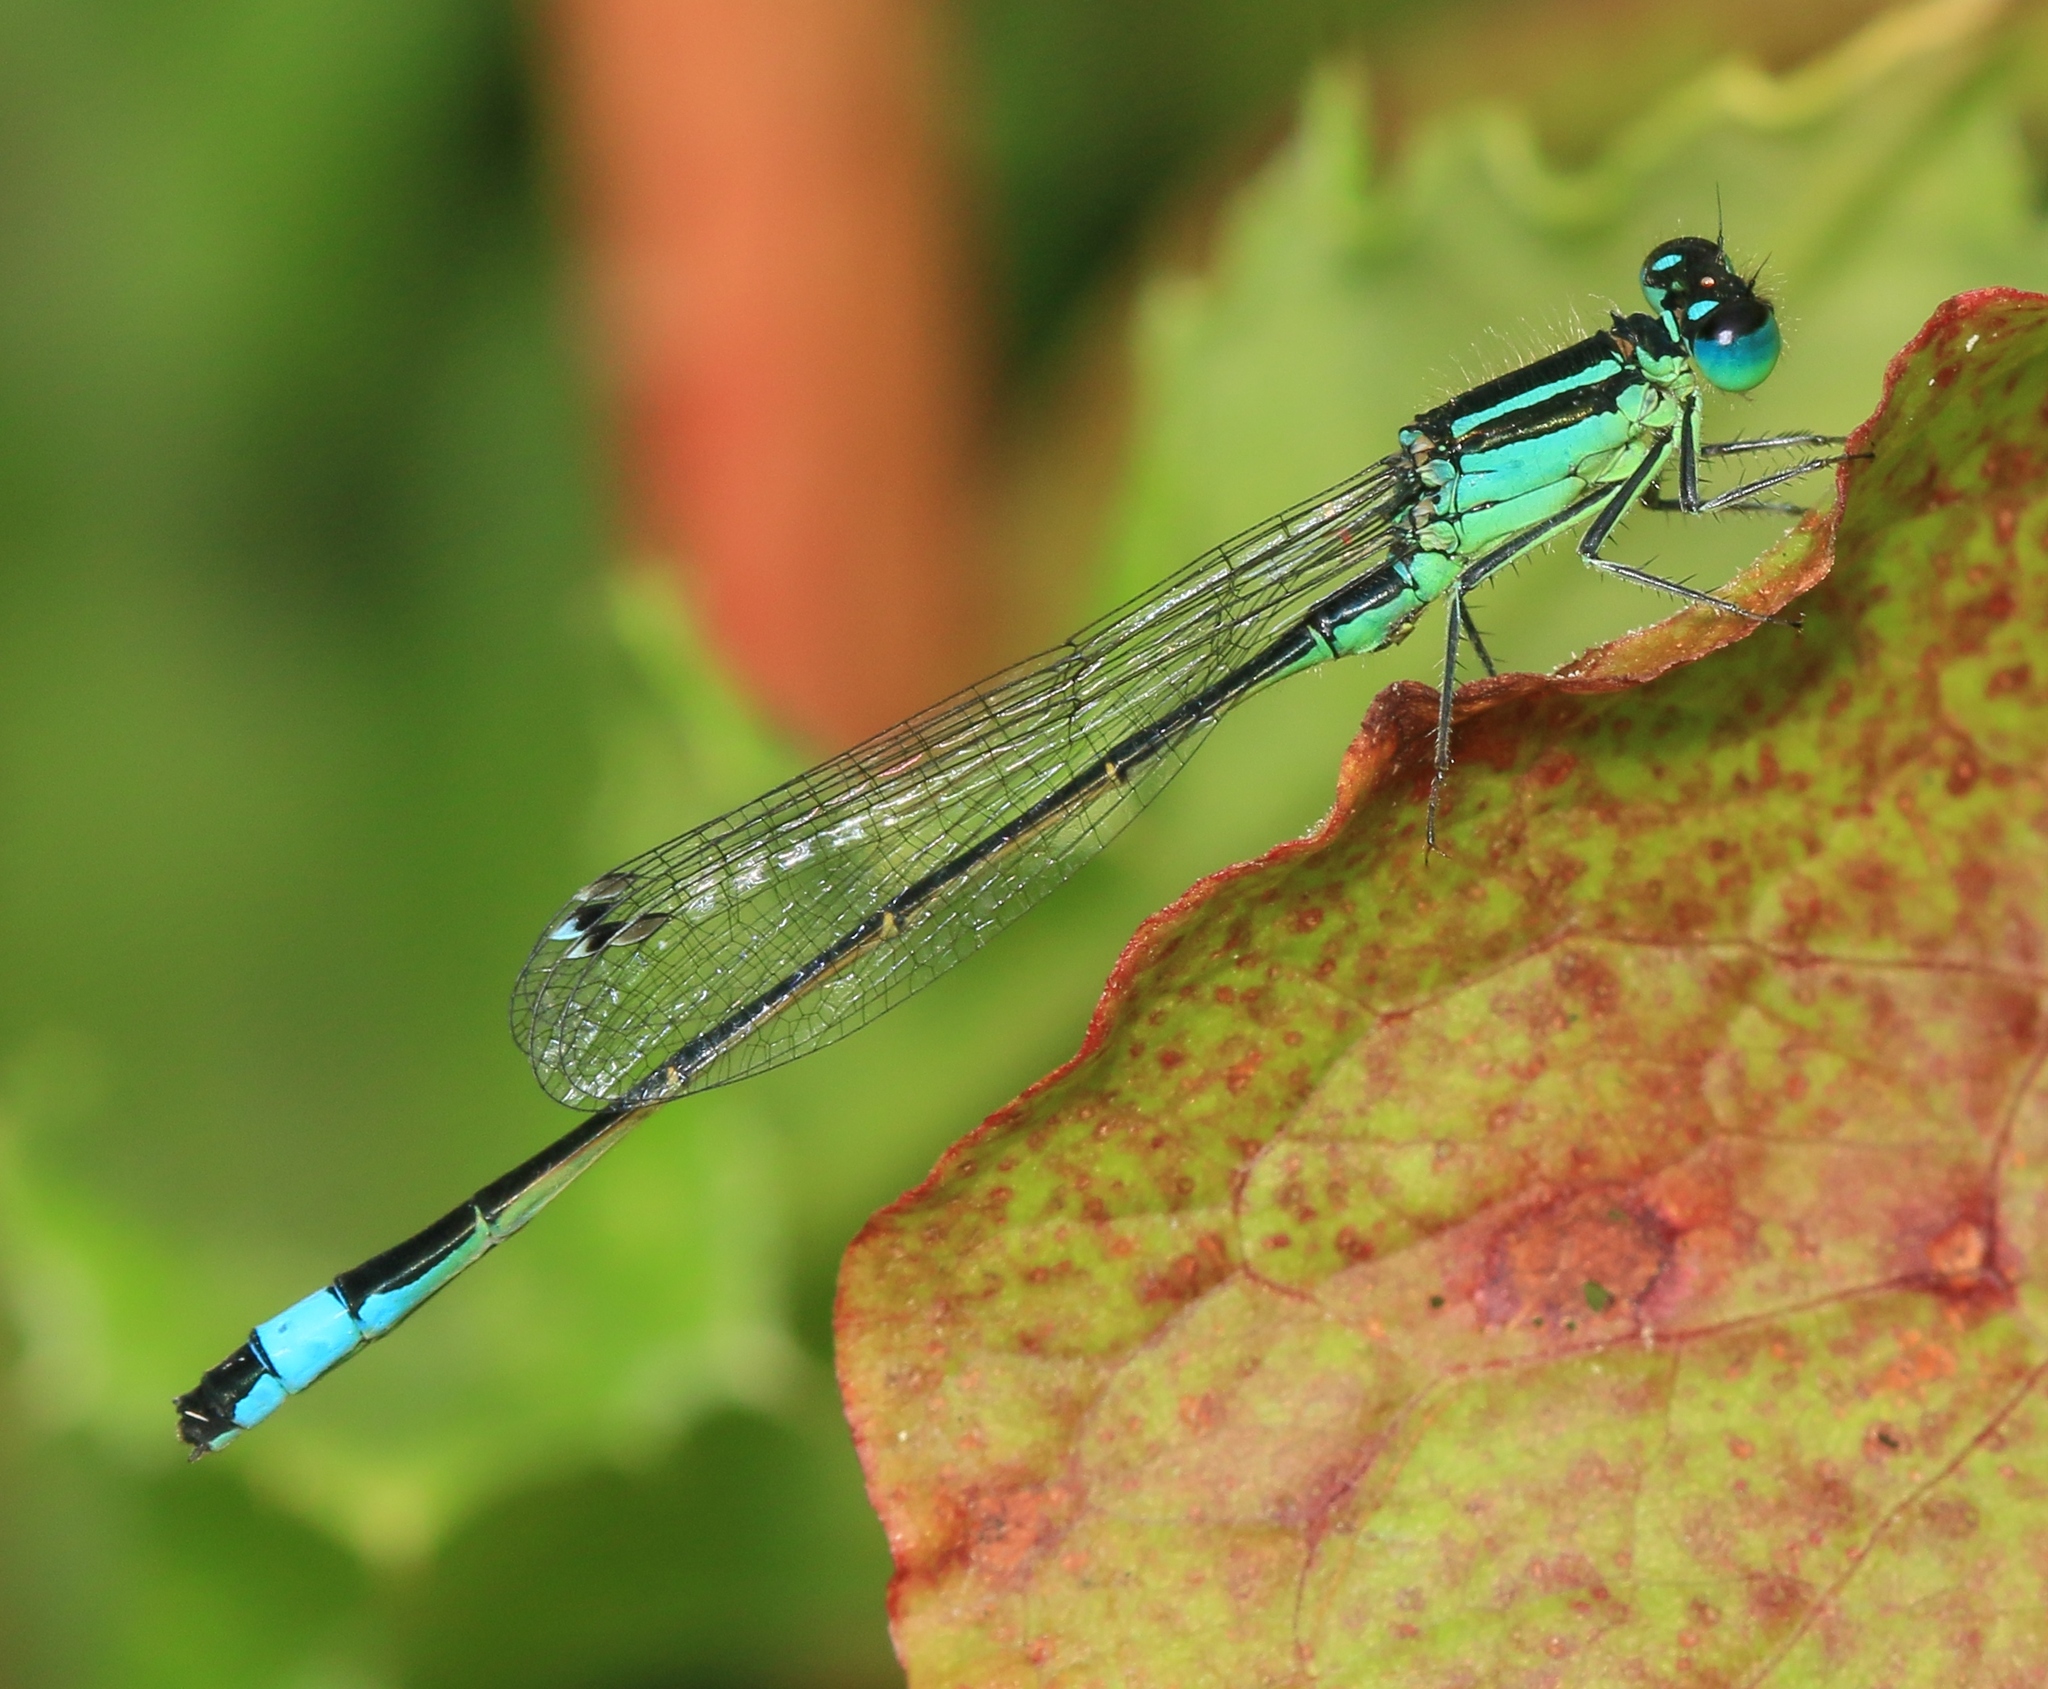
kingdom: Animalia
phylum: Arthropoda
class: Insecta
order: Odonata
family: Coenagrionidae
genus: Ischnura
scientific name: Ischnura elegans
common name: Blue-tailed damselfly
